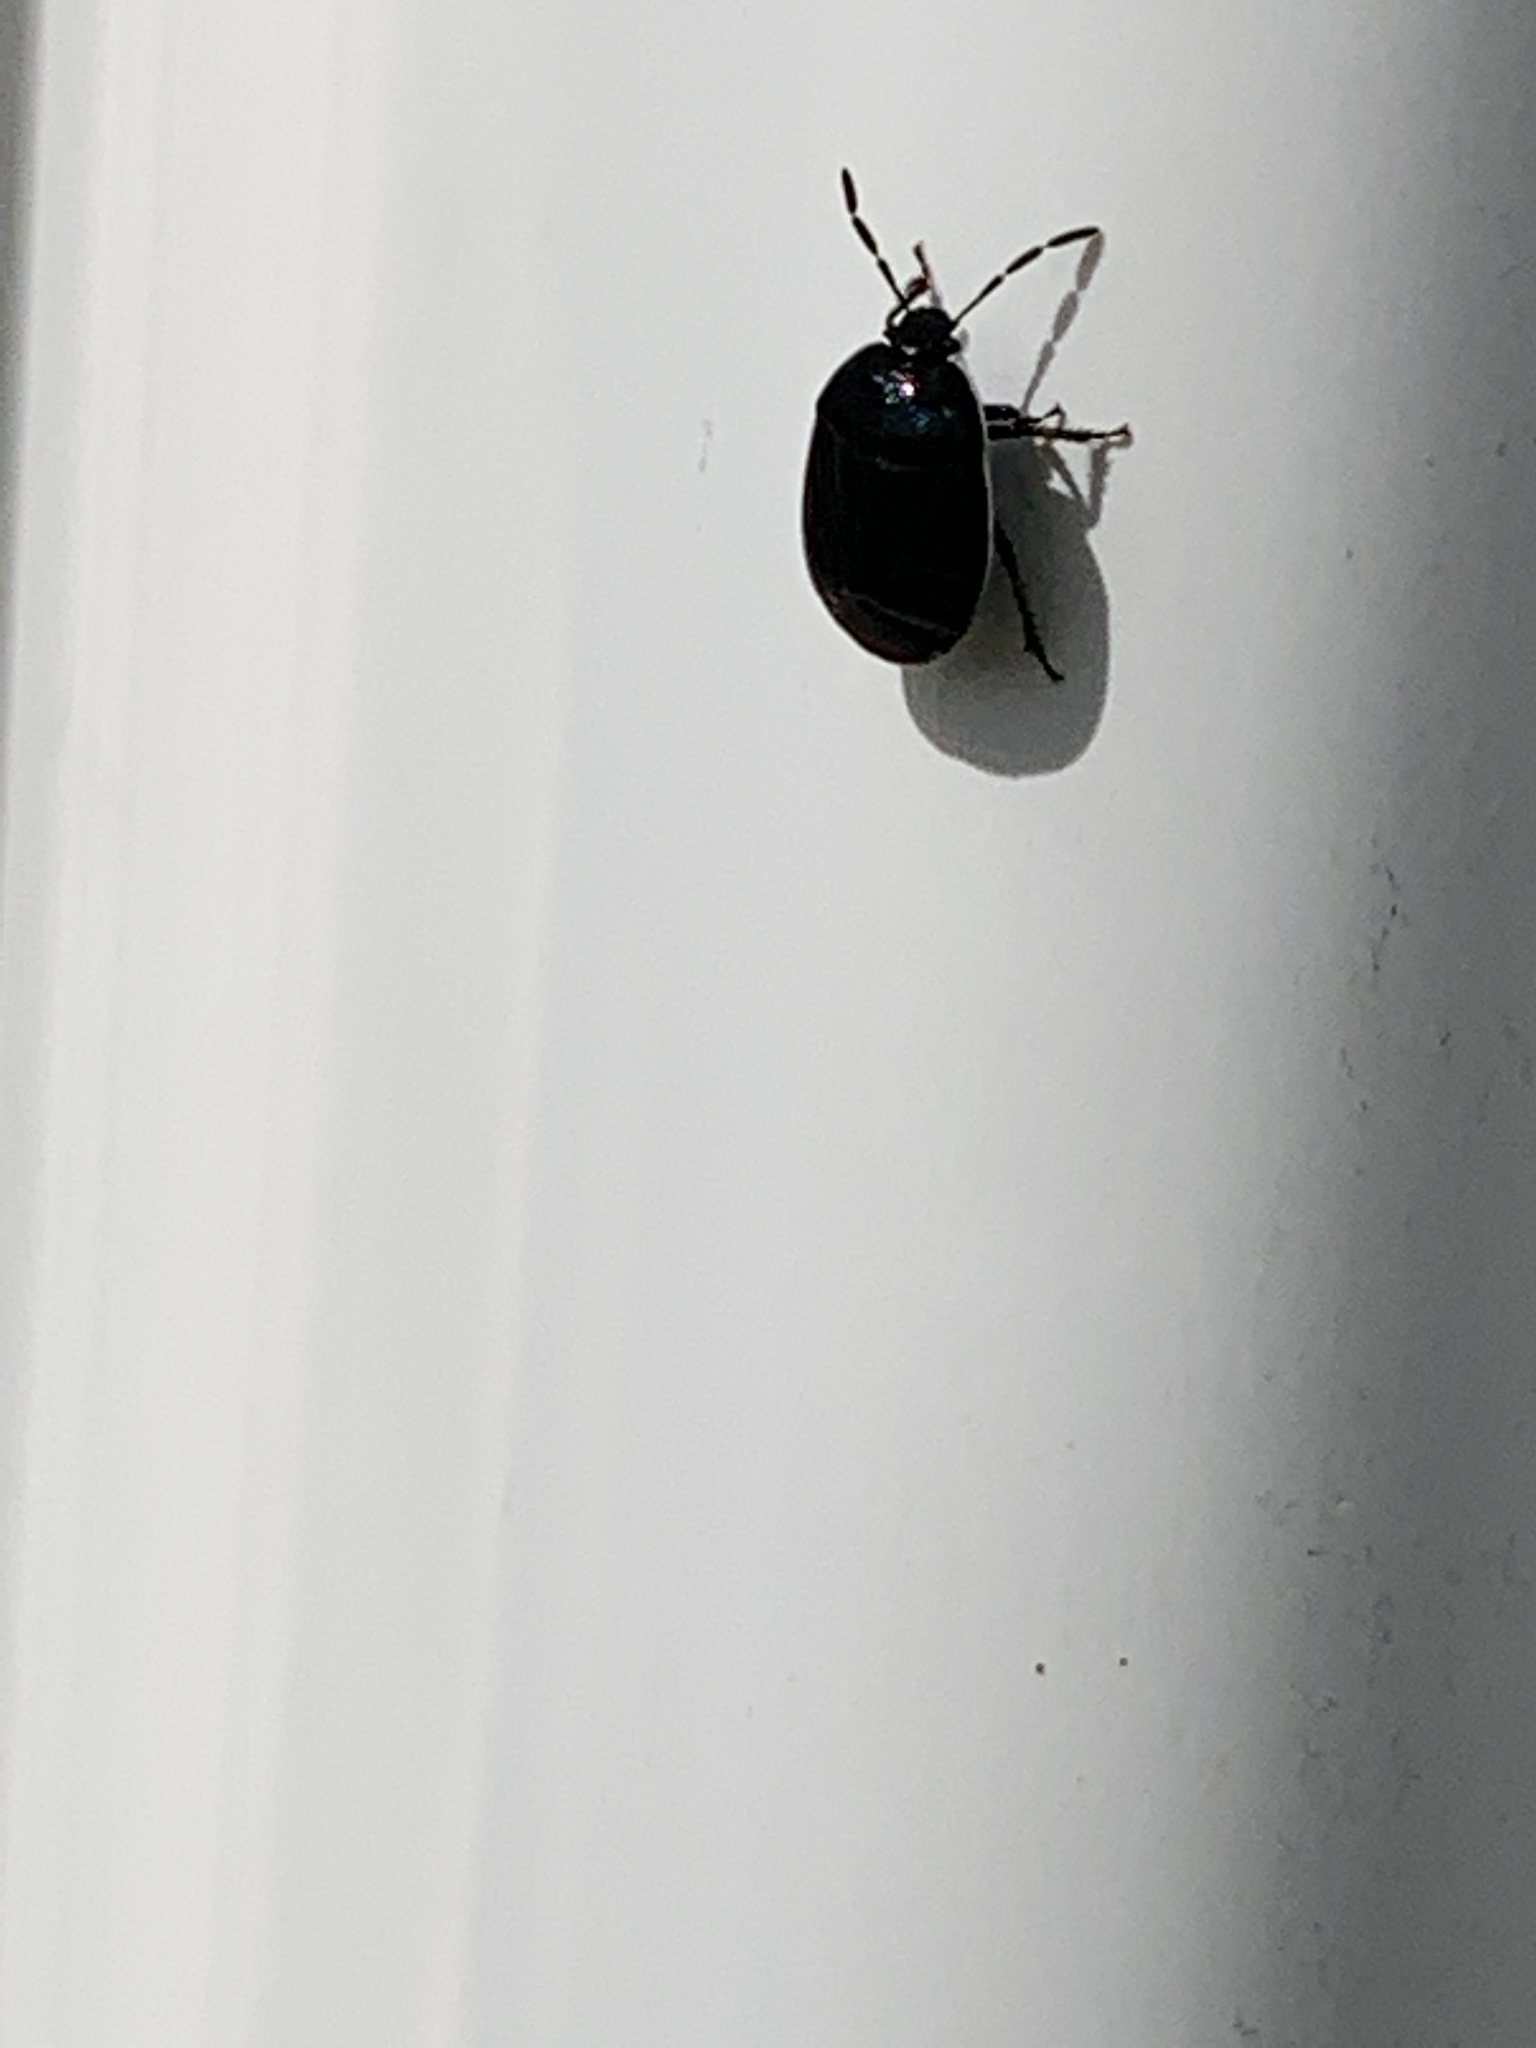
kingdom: Animalia
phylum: Arthropoda
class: Insecta
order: Hemiptera
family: Cydnidae
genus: Sehirus
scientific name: Sehirus cinctus
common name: White-margined burrower bug
